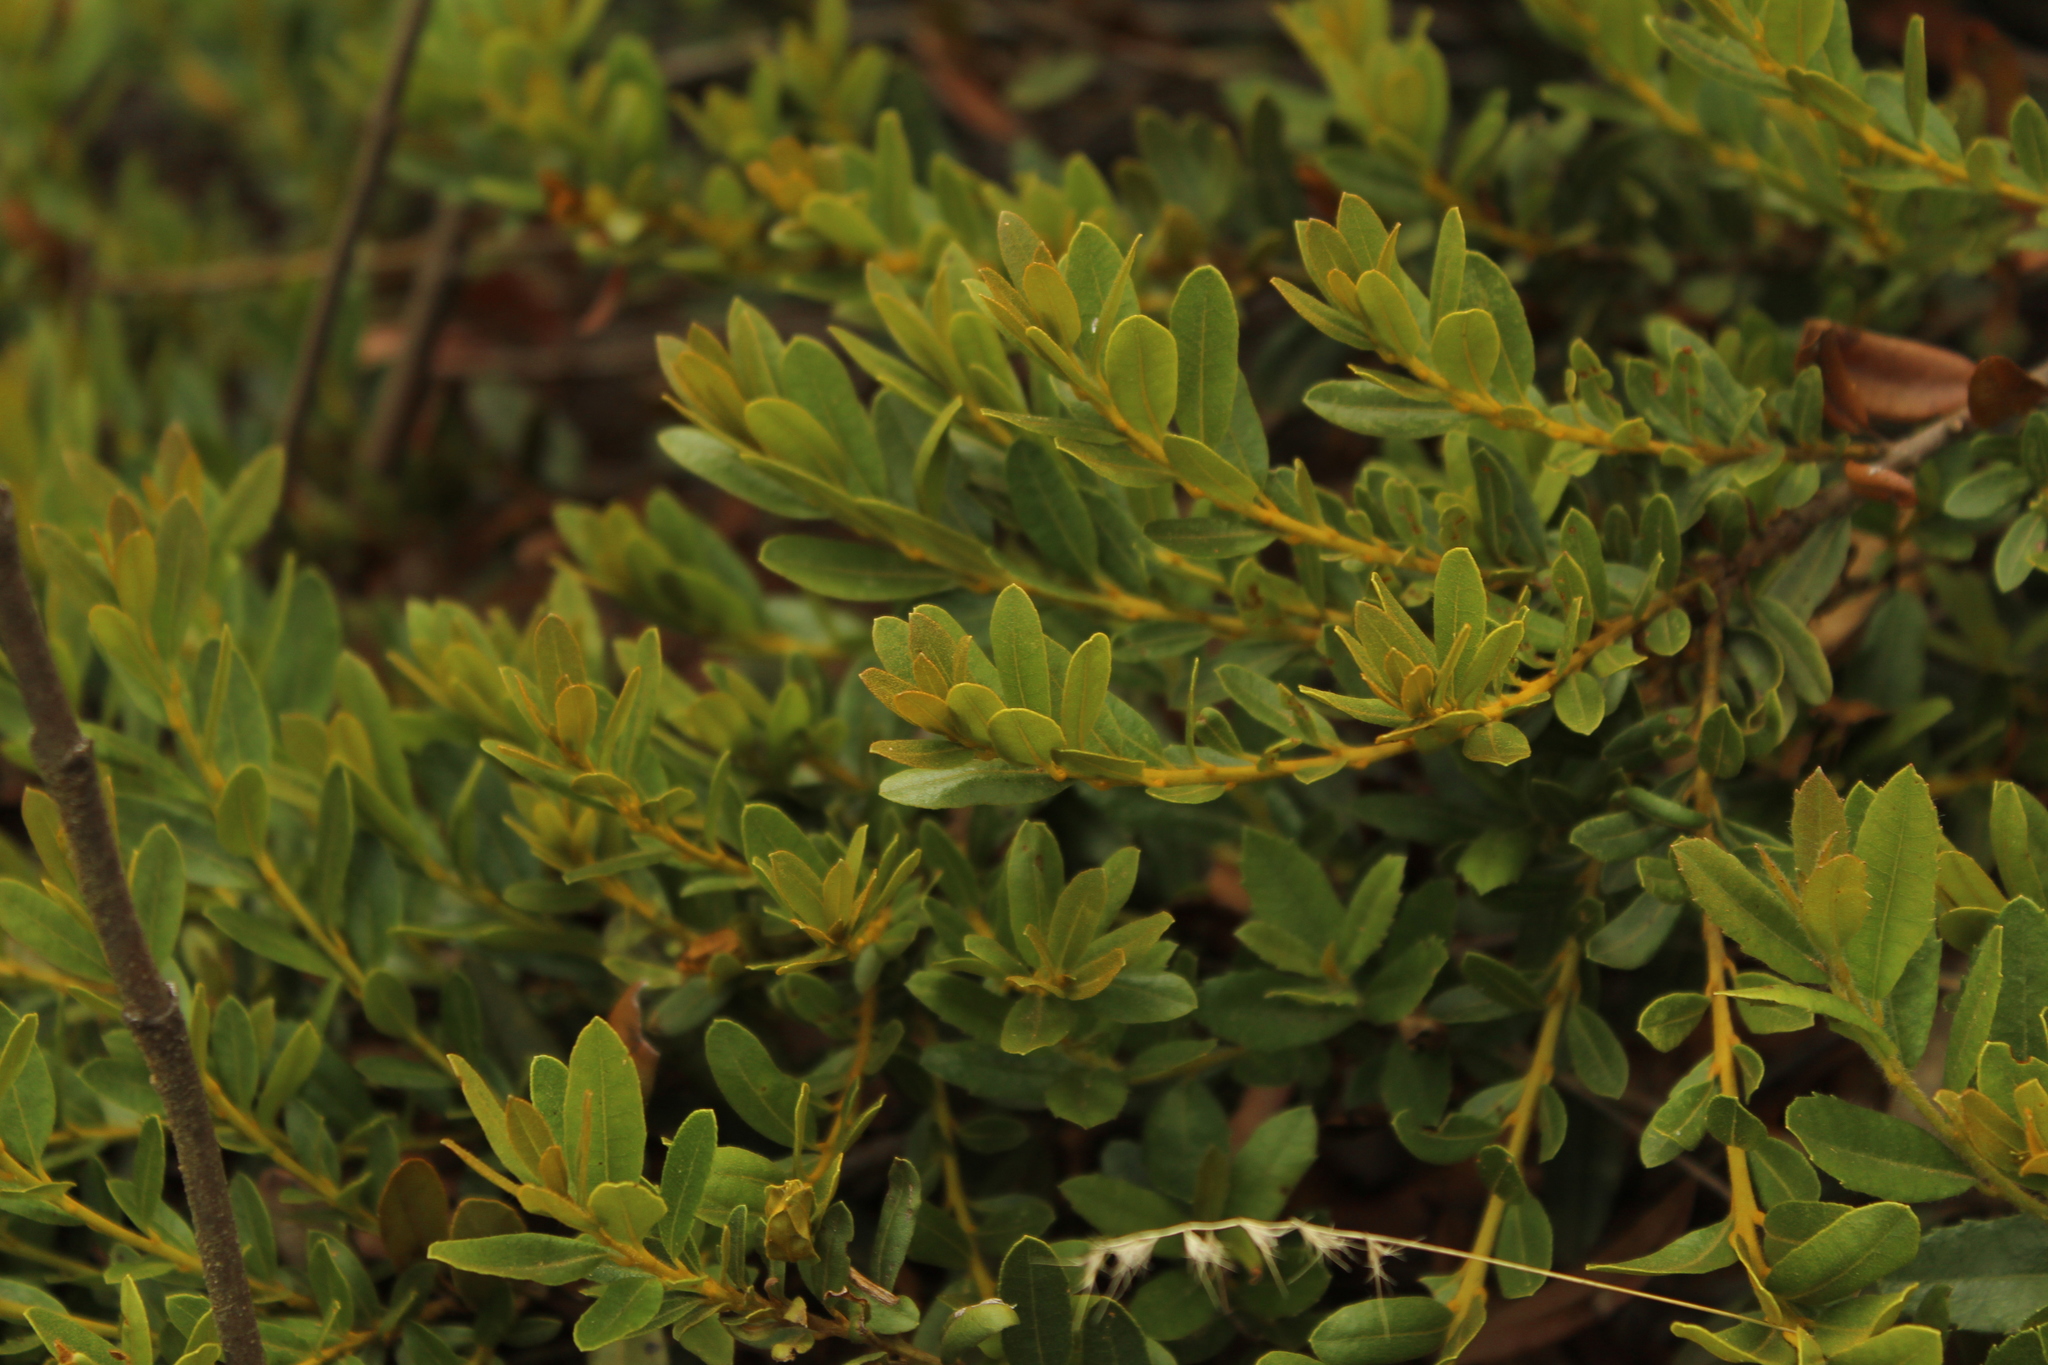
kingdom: Plantae
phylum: Tracheophyta
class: Magnoliopsida
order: Fagales
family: Myricaceae
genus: Morella
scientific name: Morella parvifolia
